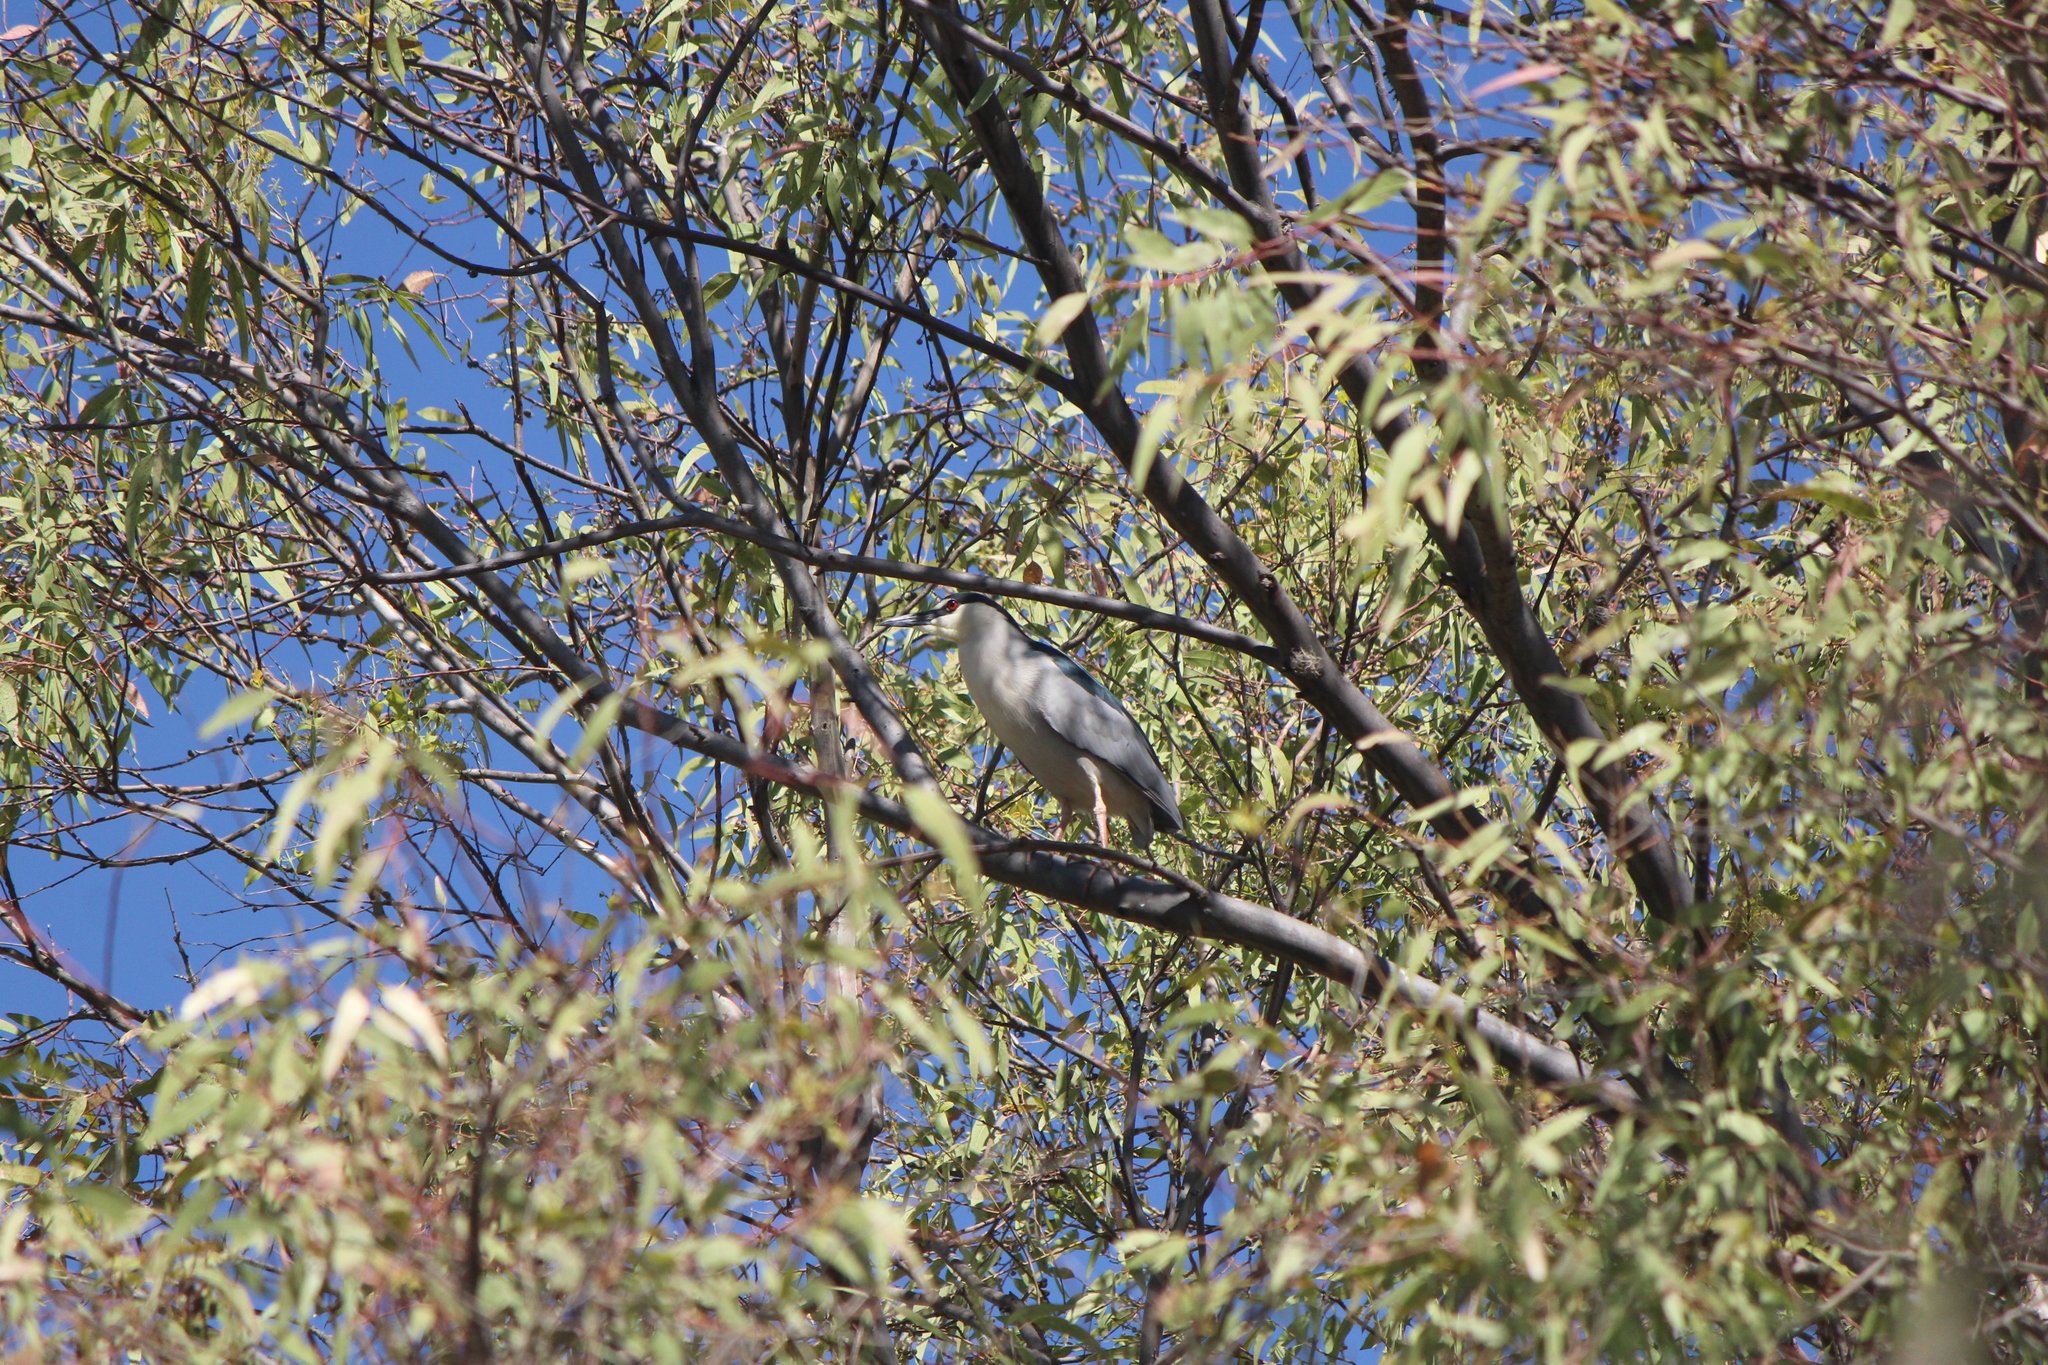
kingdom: Animalia
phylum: Chordata
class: Aves
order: Pelecaniformes
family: Ardeidae
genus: Nycticorax
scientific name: Nycticorax nycticorax
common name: Black-crowned night heron
